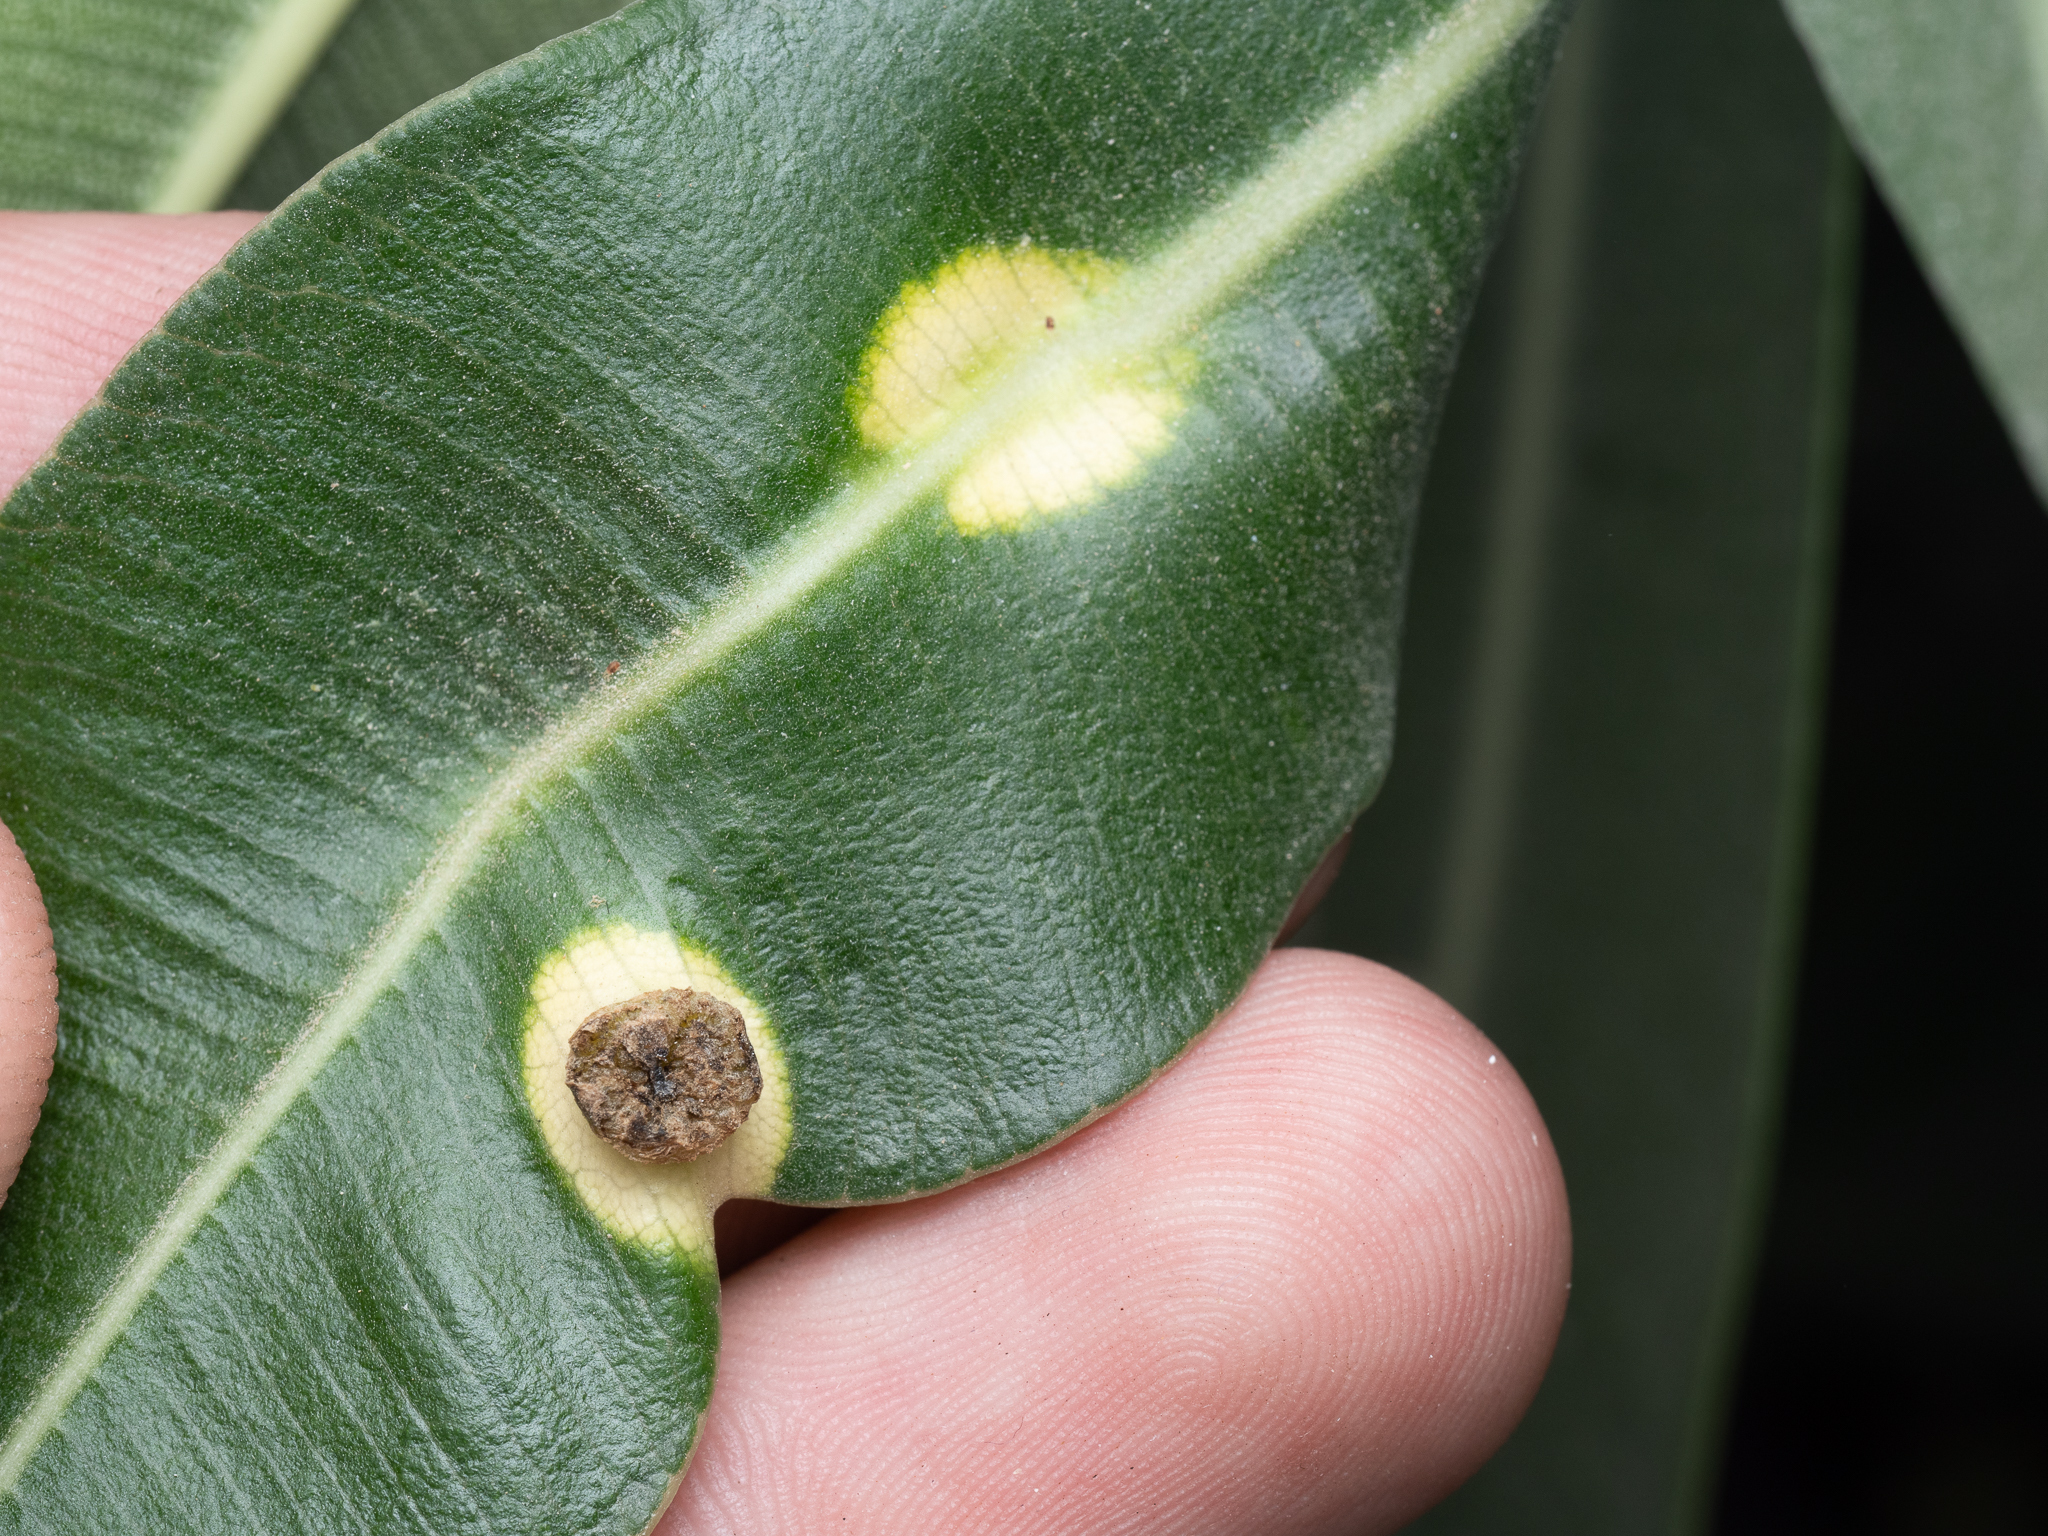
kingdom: Bacteria
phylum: Proteobacteria
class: Gammaproteobacteria
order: Pseudomonadales
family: Pseudomonadaceae
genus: Pseudomonas
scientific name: Pseudomonas
